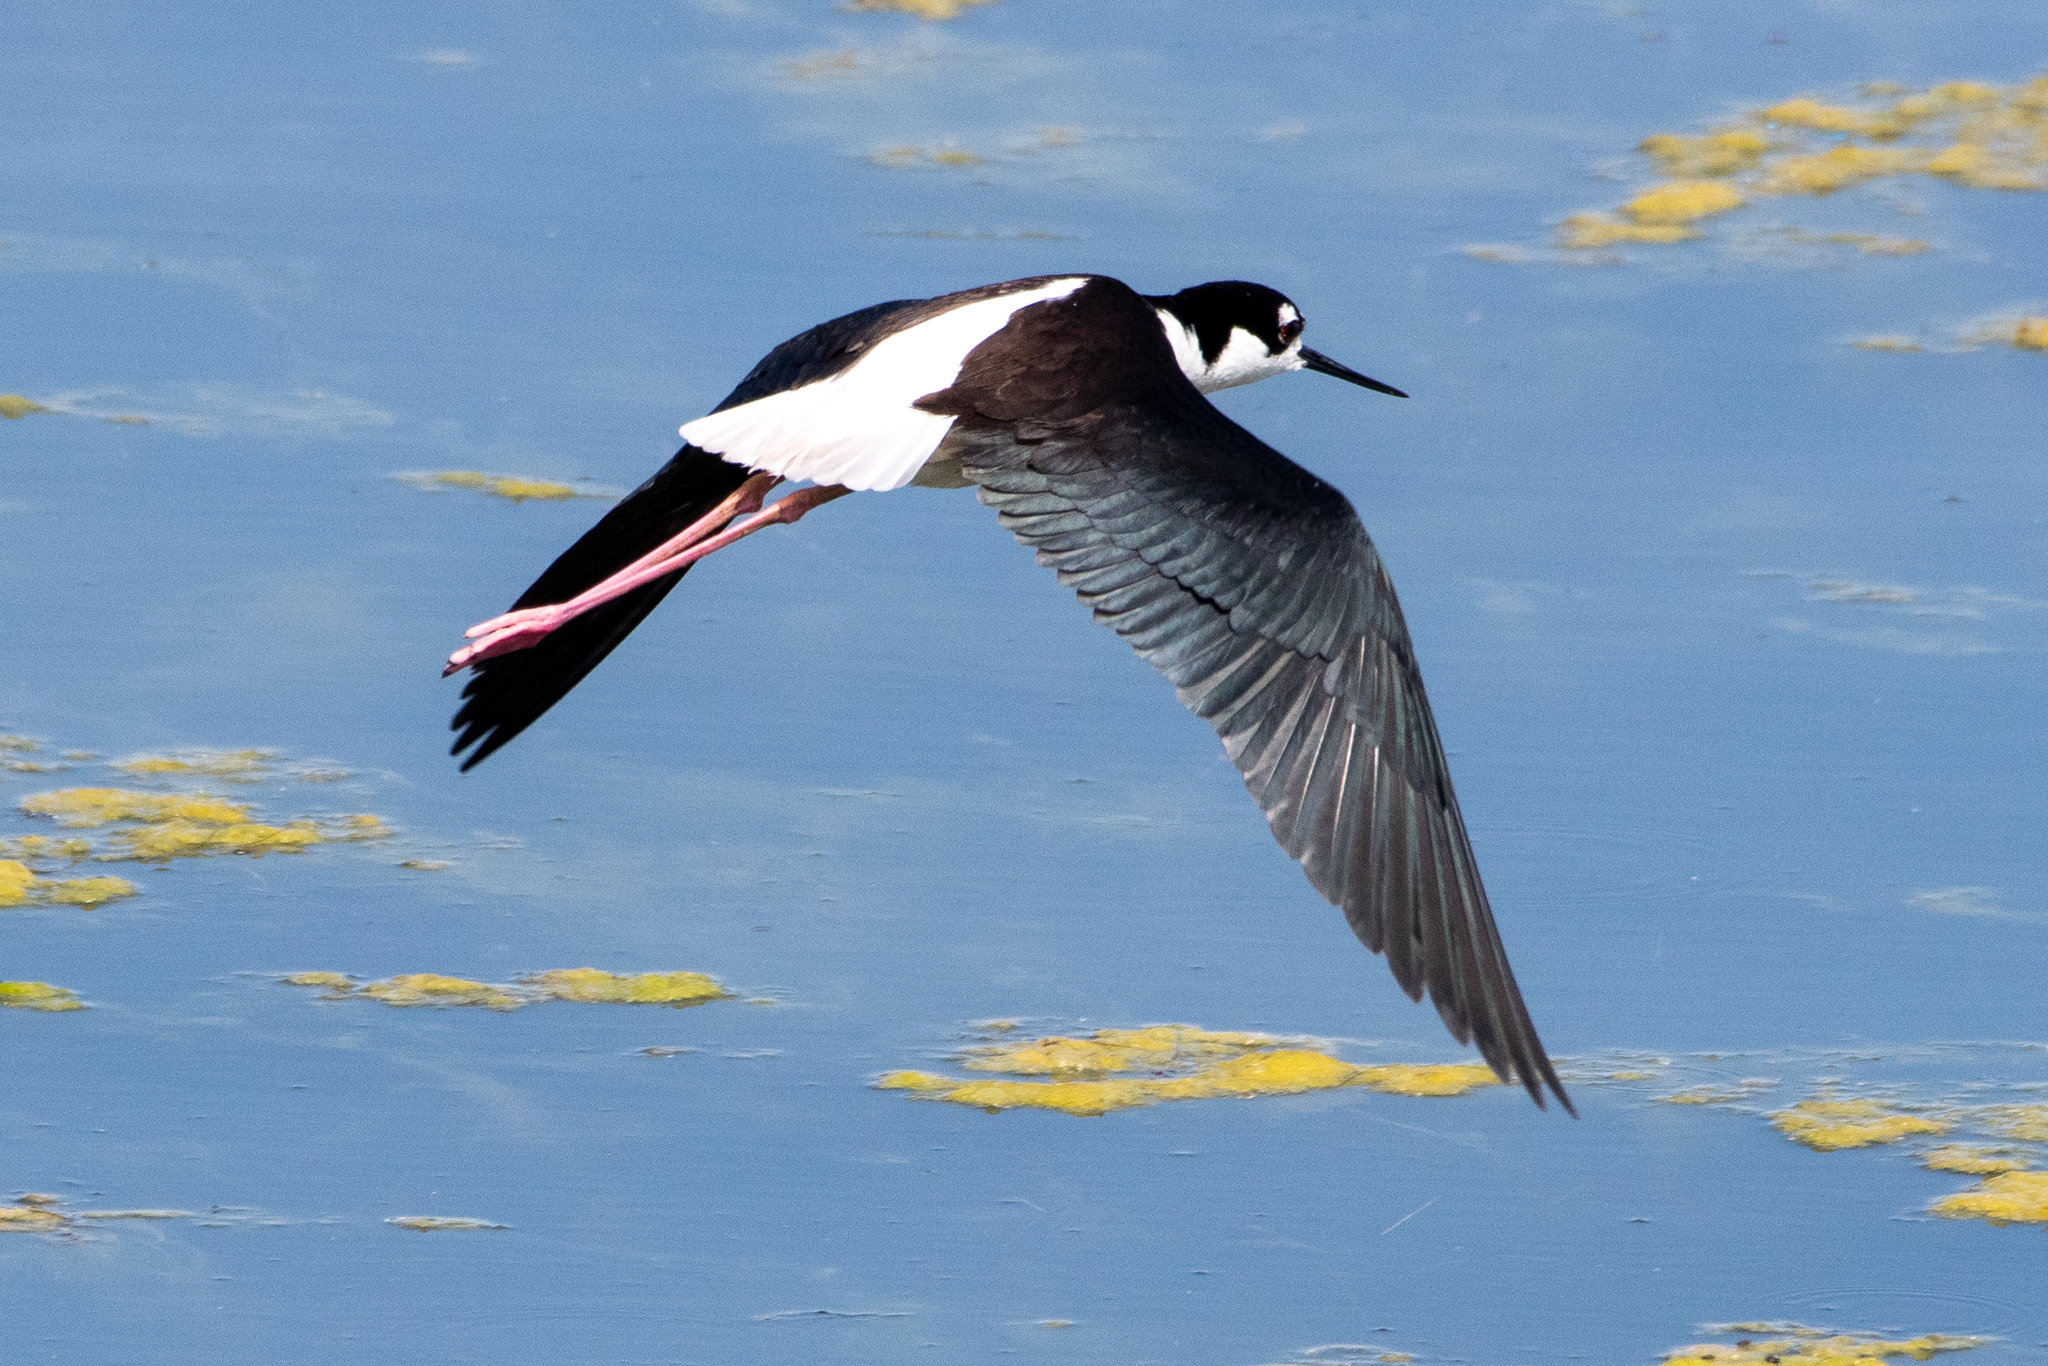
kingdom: Animalia
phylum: Chordata
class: Aves
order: Charadriiformes
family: Recurvirostridae
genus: Himantopus
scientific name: Himantopus mexicanus
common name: Black-necked stilt
